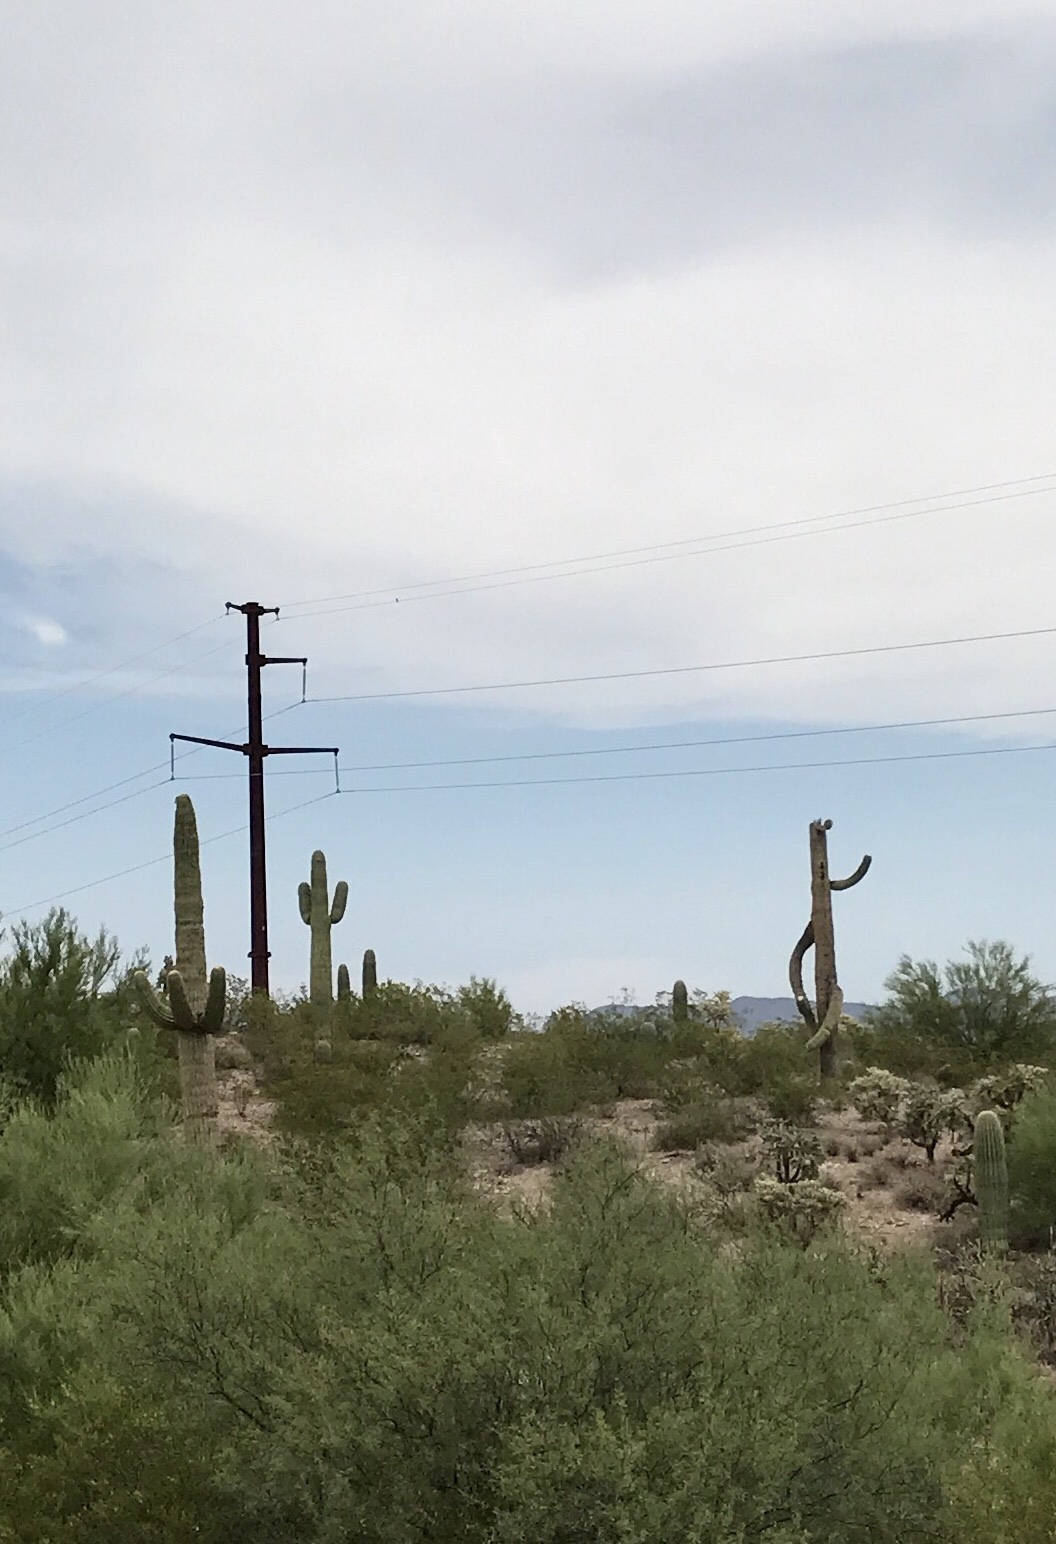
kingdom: Plantae
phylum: Tracheophyta
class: Magnoliopsida
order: Caryophyllales
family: Cactaceae
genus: Carnegiea
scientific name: Carnegiea gigantea
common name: Saguaro
